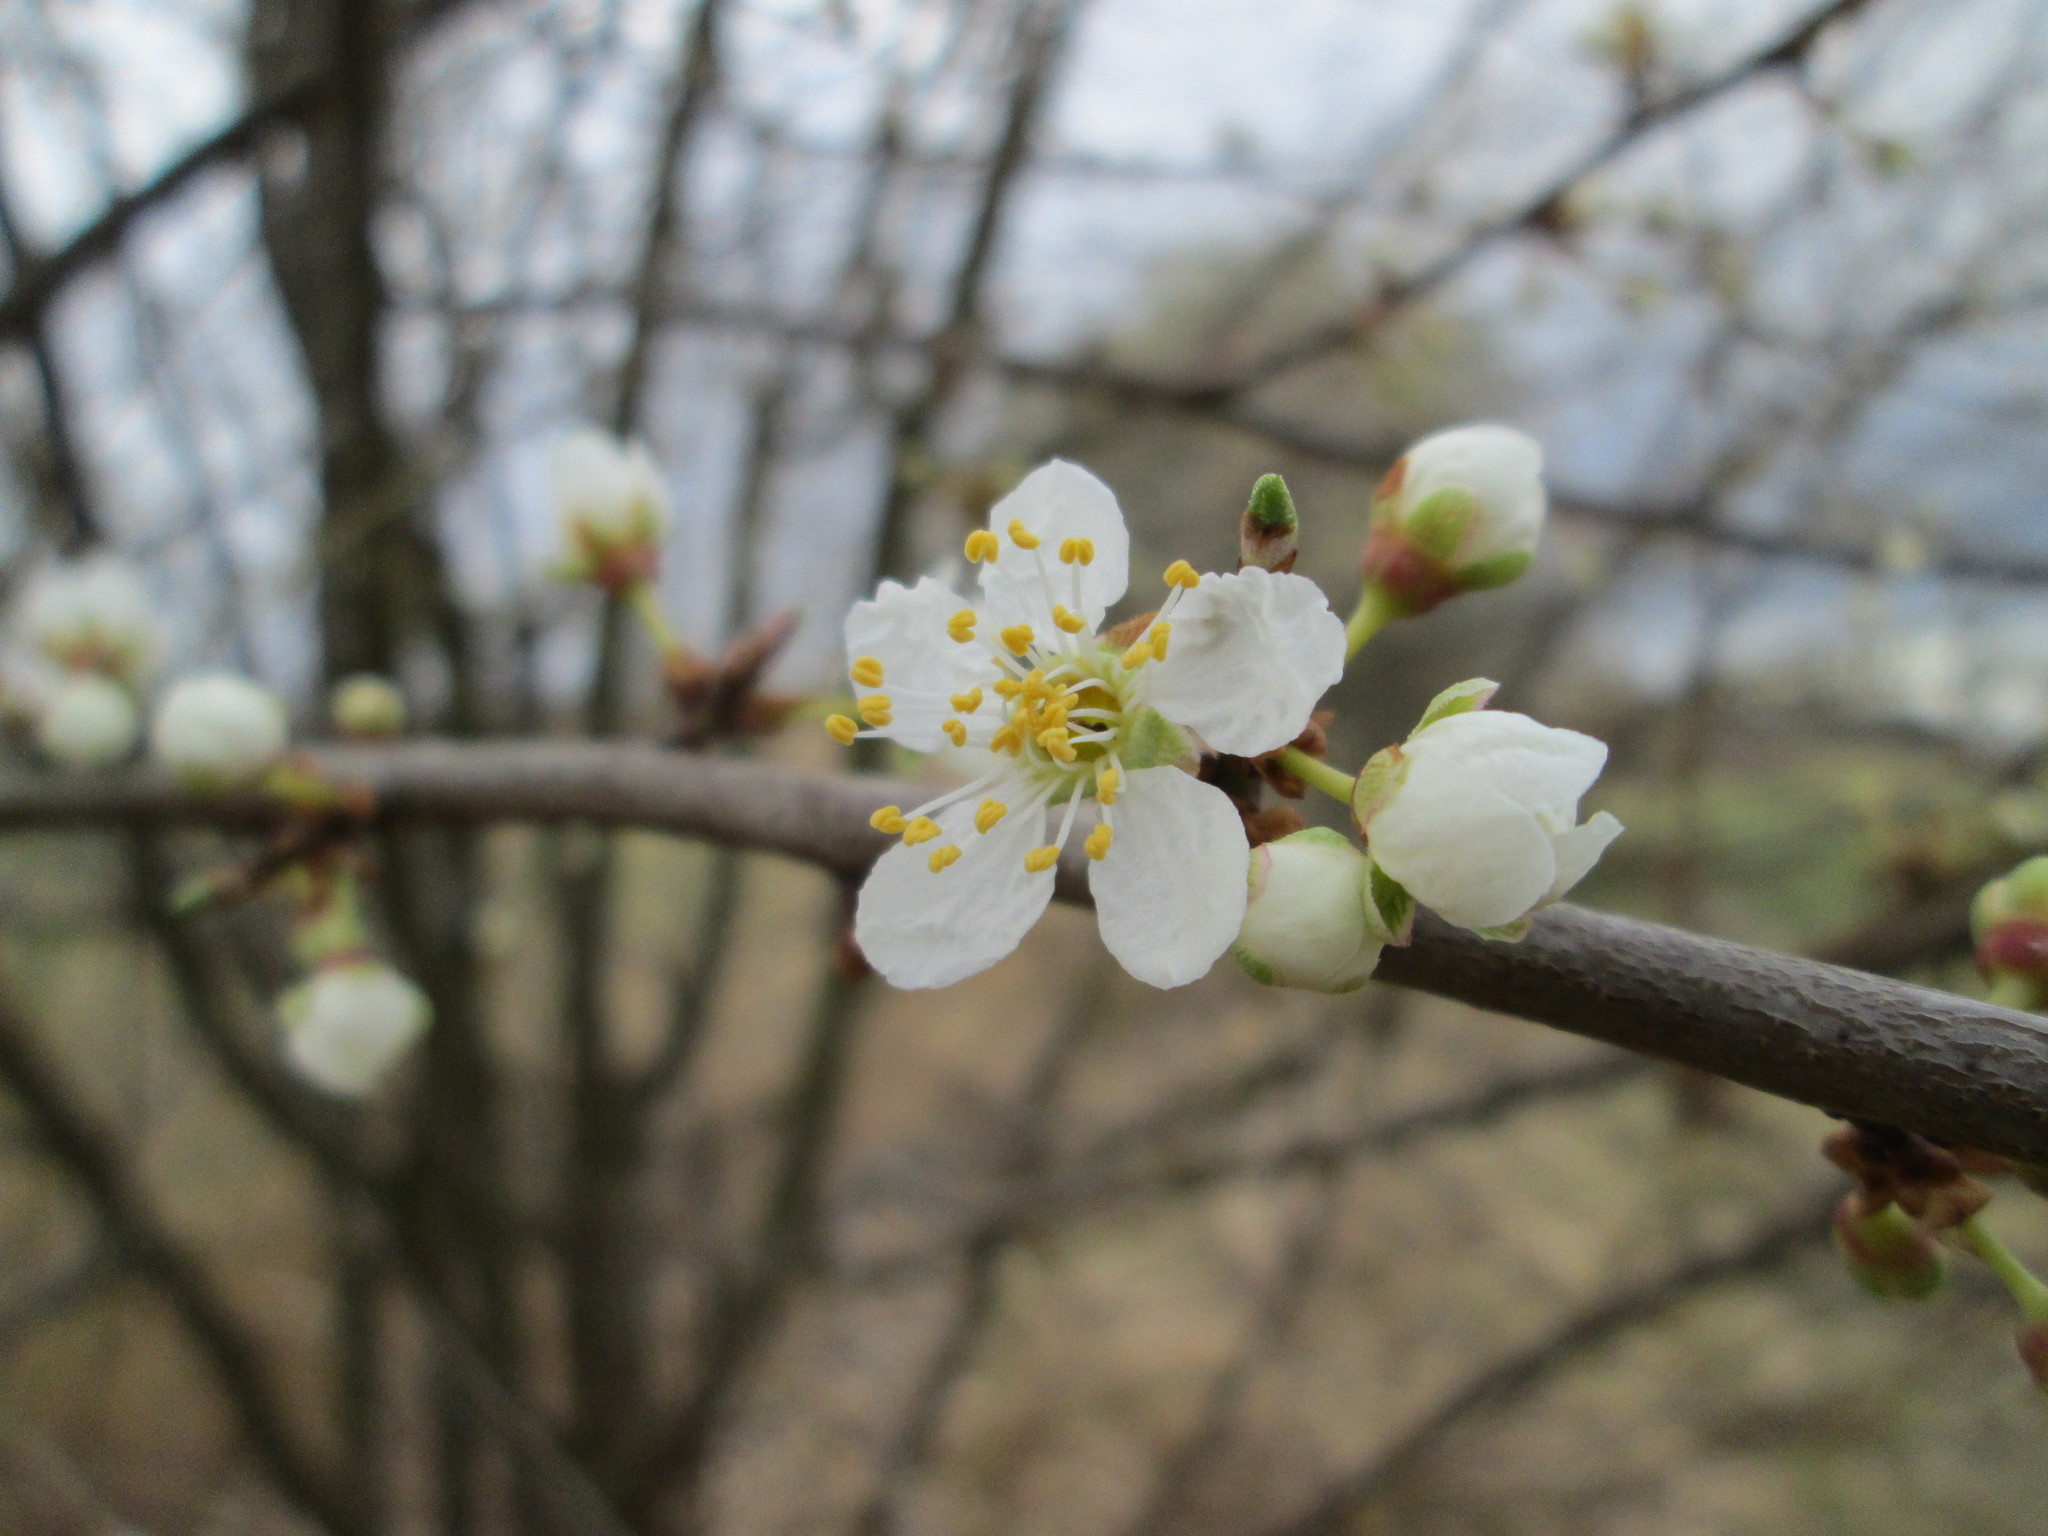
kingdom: Plantae
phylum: Tracheophyta
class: Magnoliopsida
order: Rosales
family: Rosaceae
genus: Prunus
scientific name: Prunus cerasifera
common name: Cherry plum
